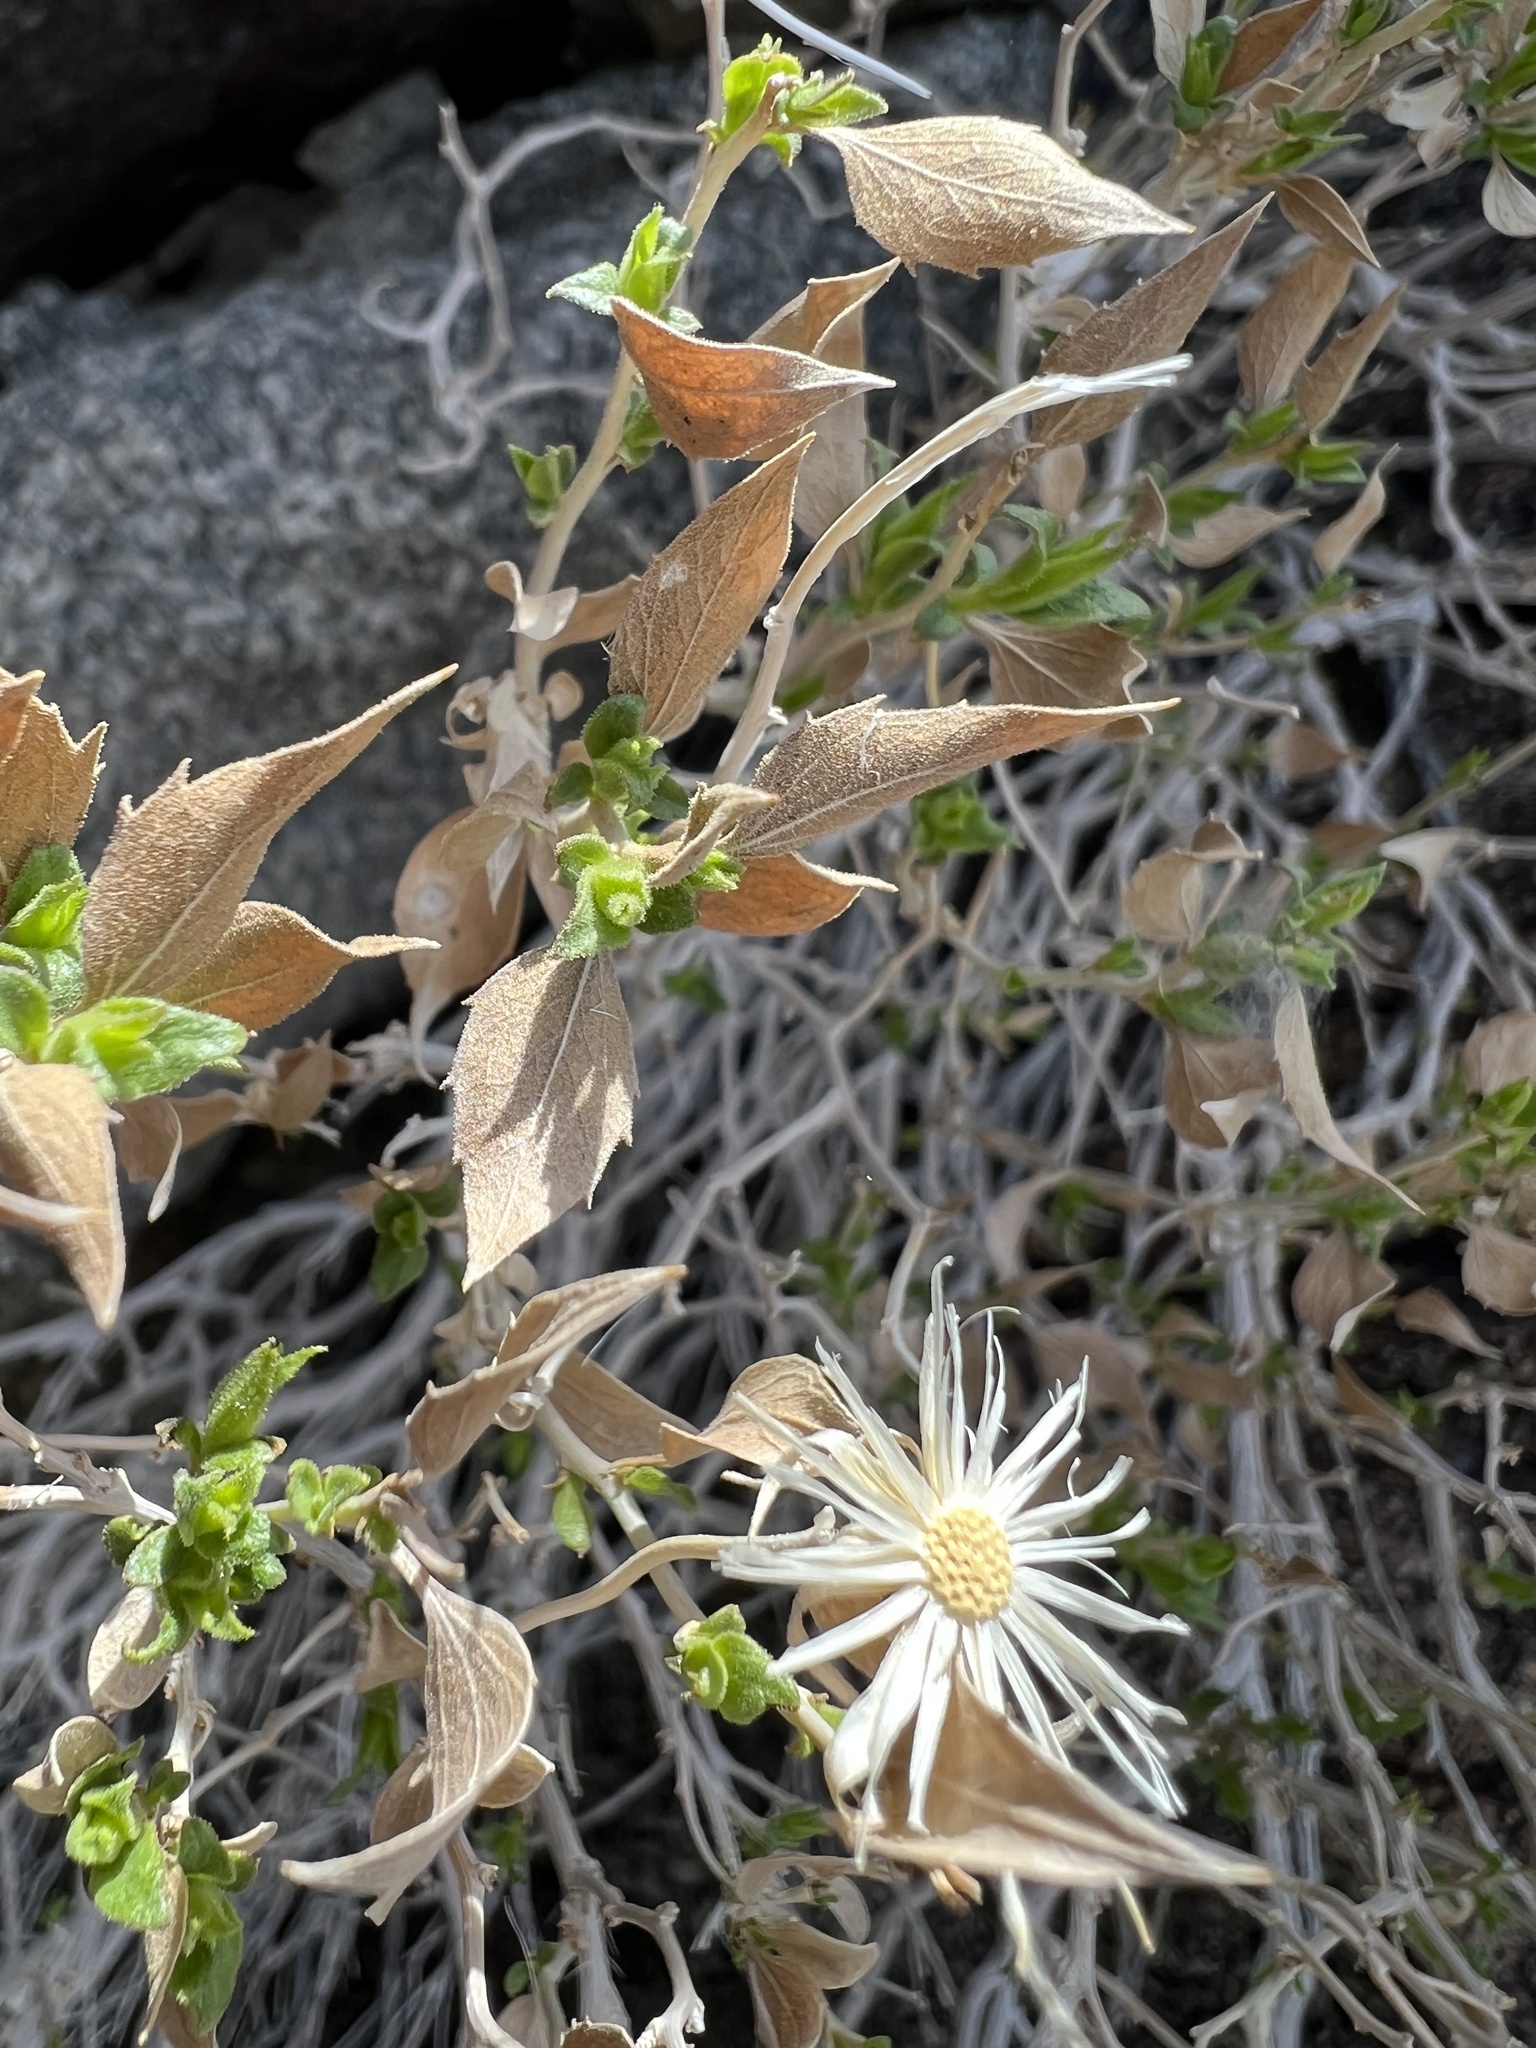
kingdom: Plantae
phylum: Tracheophyta
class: Magnoliopsida
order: Asterales
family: Asteraceae
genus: Brickellia
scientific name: Brickellia atractyloides
